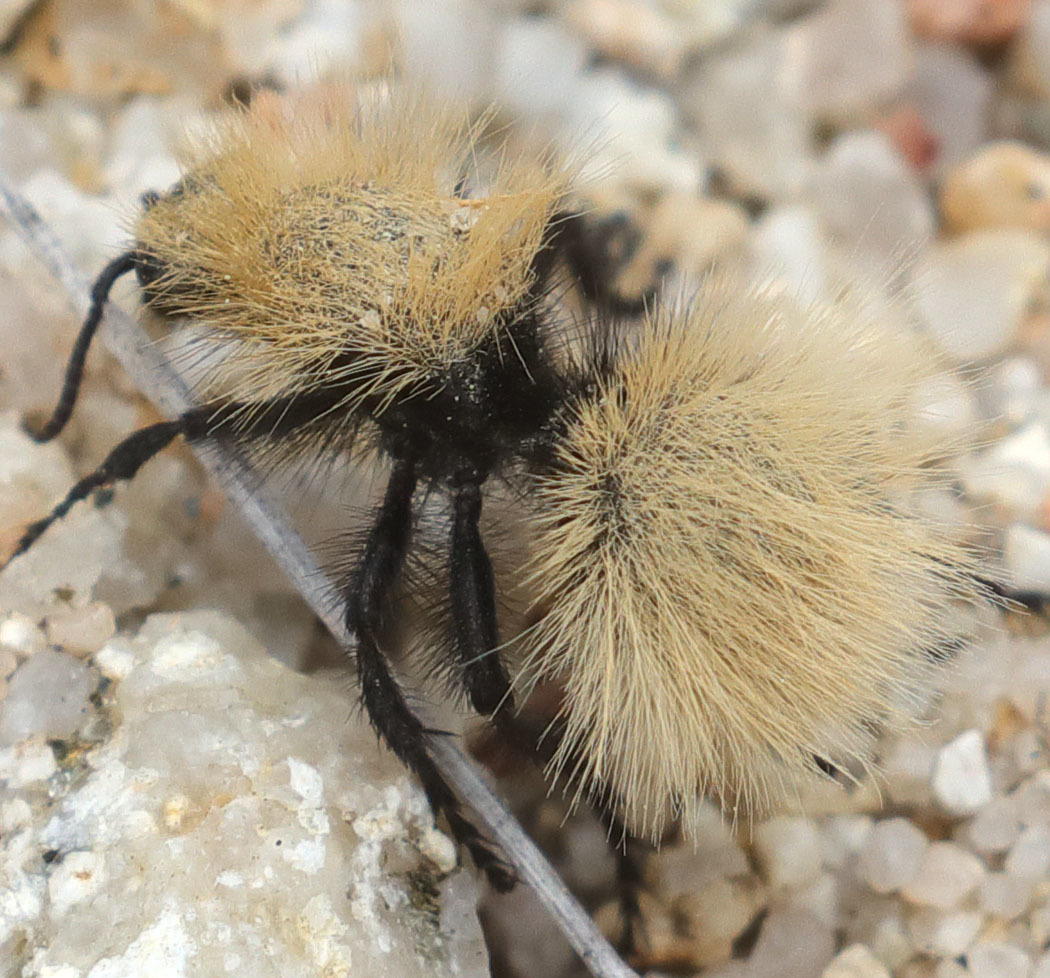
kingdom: Animalia
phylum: Arthropoda
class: Insecta
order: Hymenoptera
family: Mutillidae
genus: Dasymutilla
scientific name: Dasymutilla
